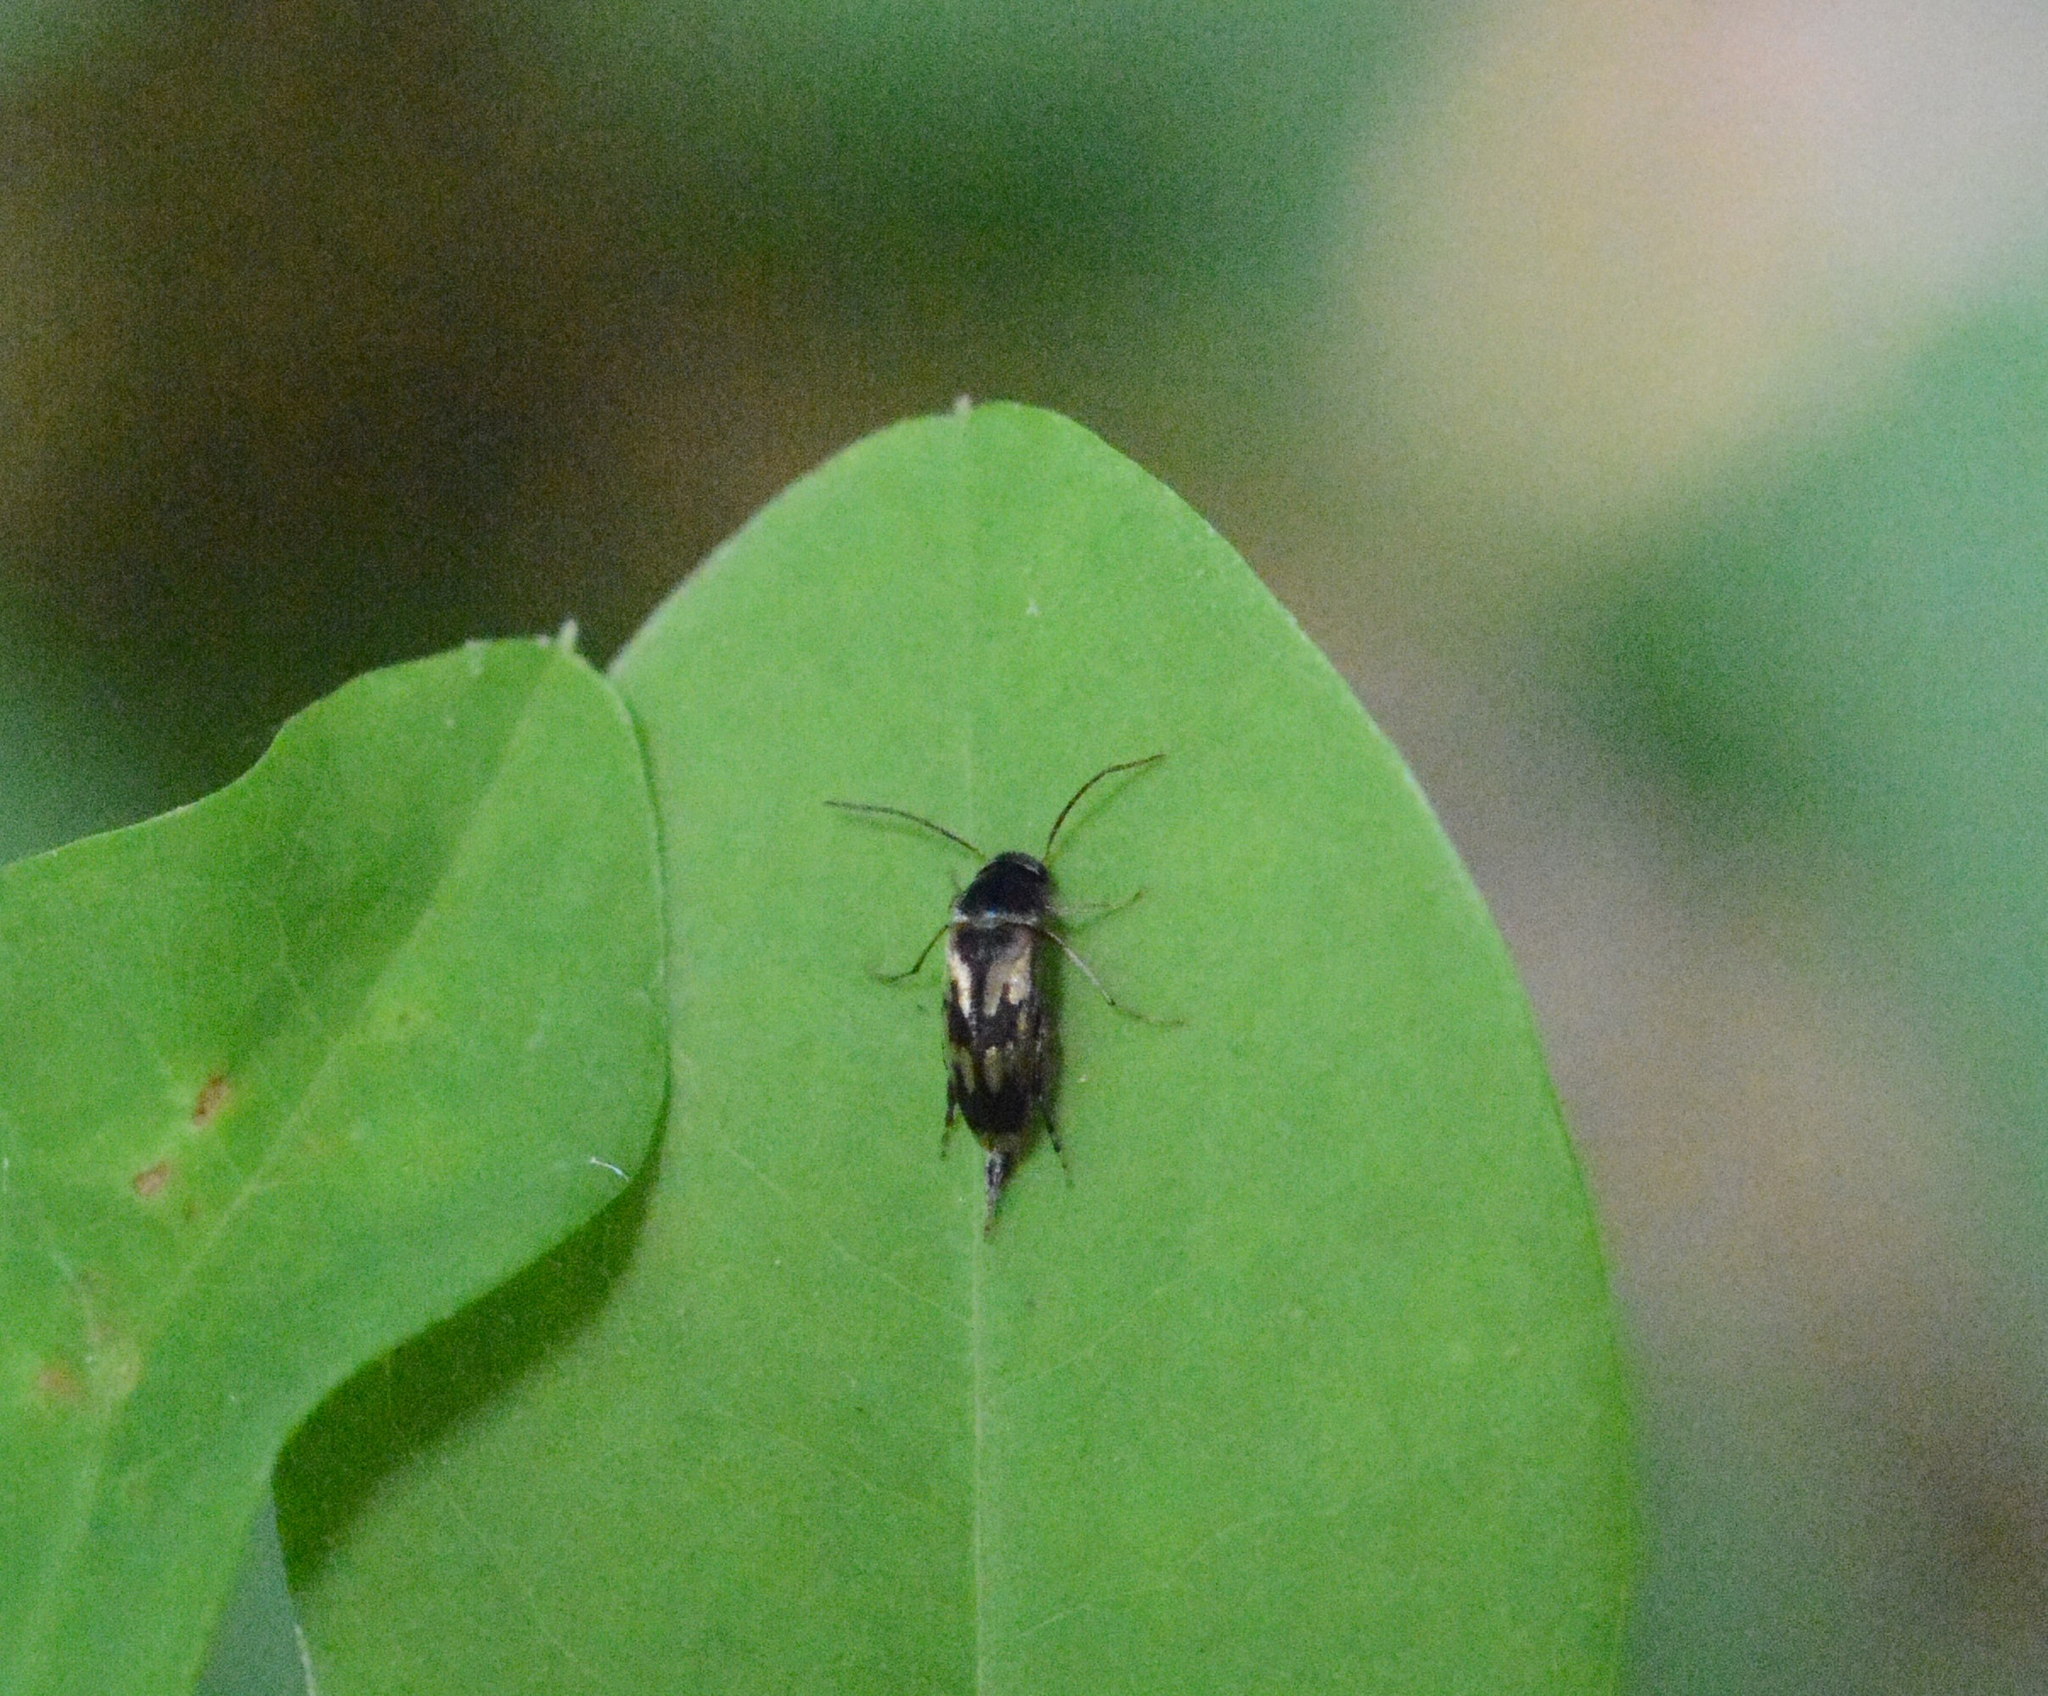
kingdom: Animalia
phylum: Arthropoda
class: Insecta
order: Coleoptera
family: Mordellidae
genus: Falsomordellistena
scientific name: Falsomordellistena bihamata
